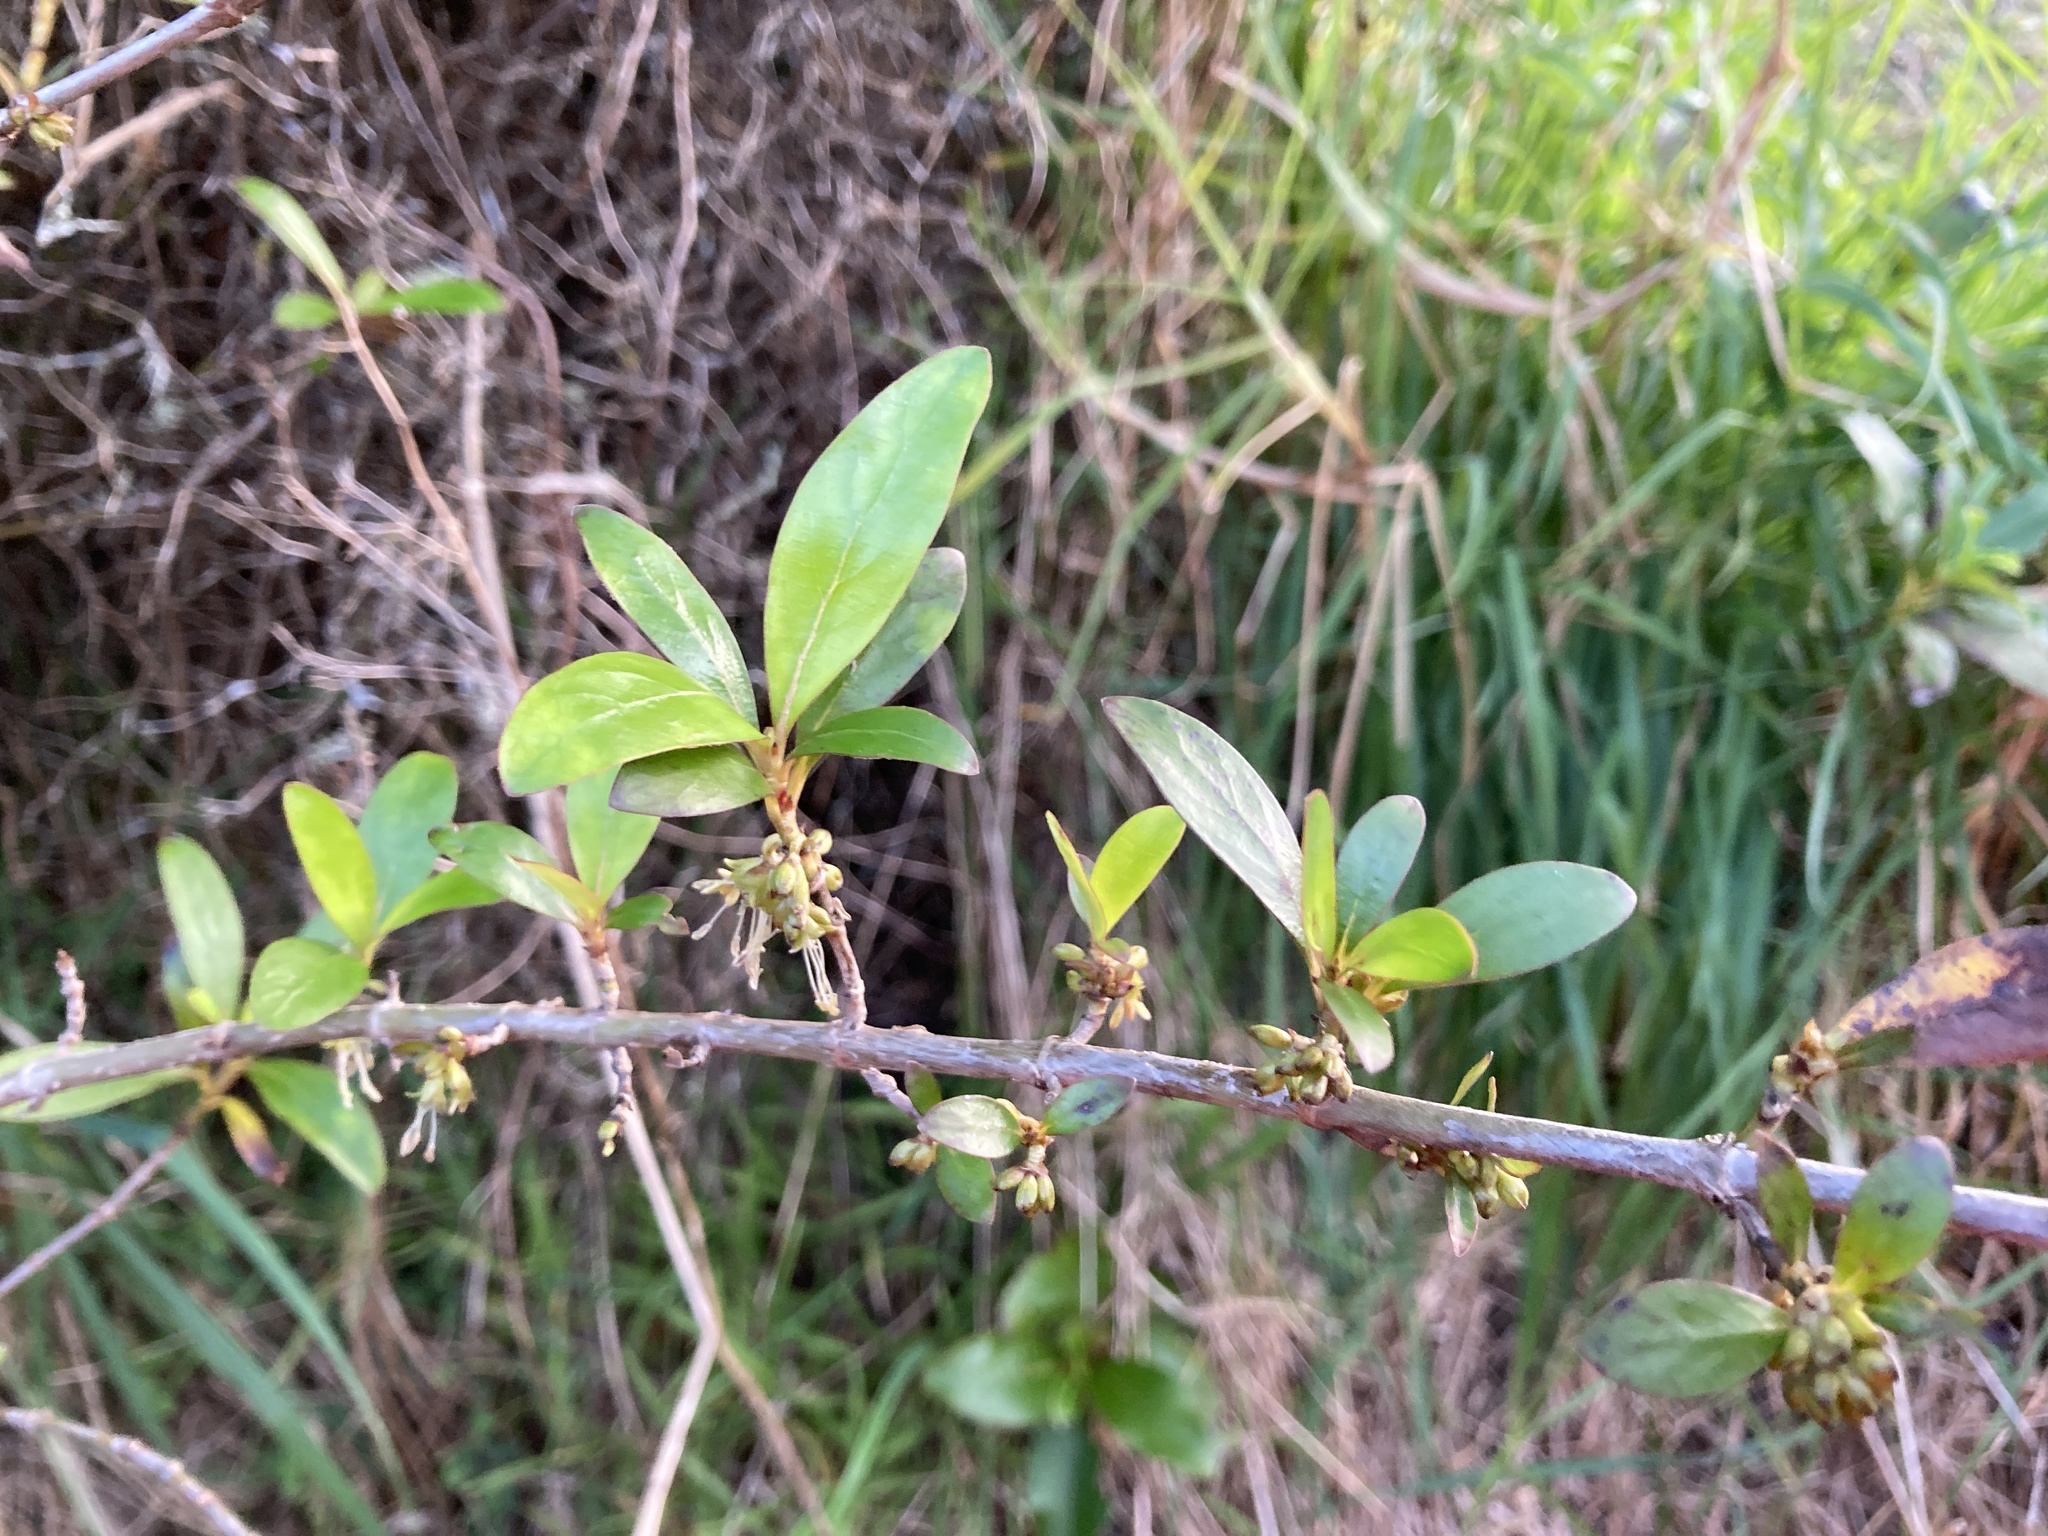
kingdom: Plantae
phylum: Tracheophyta
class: Magnoliopsida
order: Gentianales
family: Rubiaceae
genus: Coprosma
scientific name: Coprosma cunninghamii
